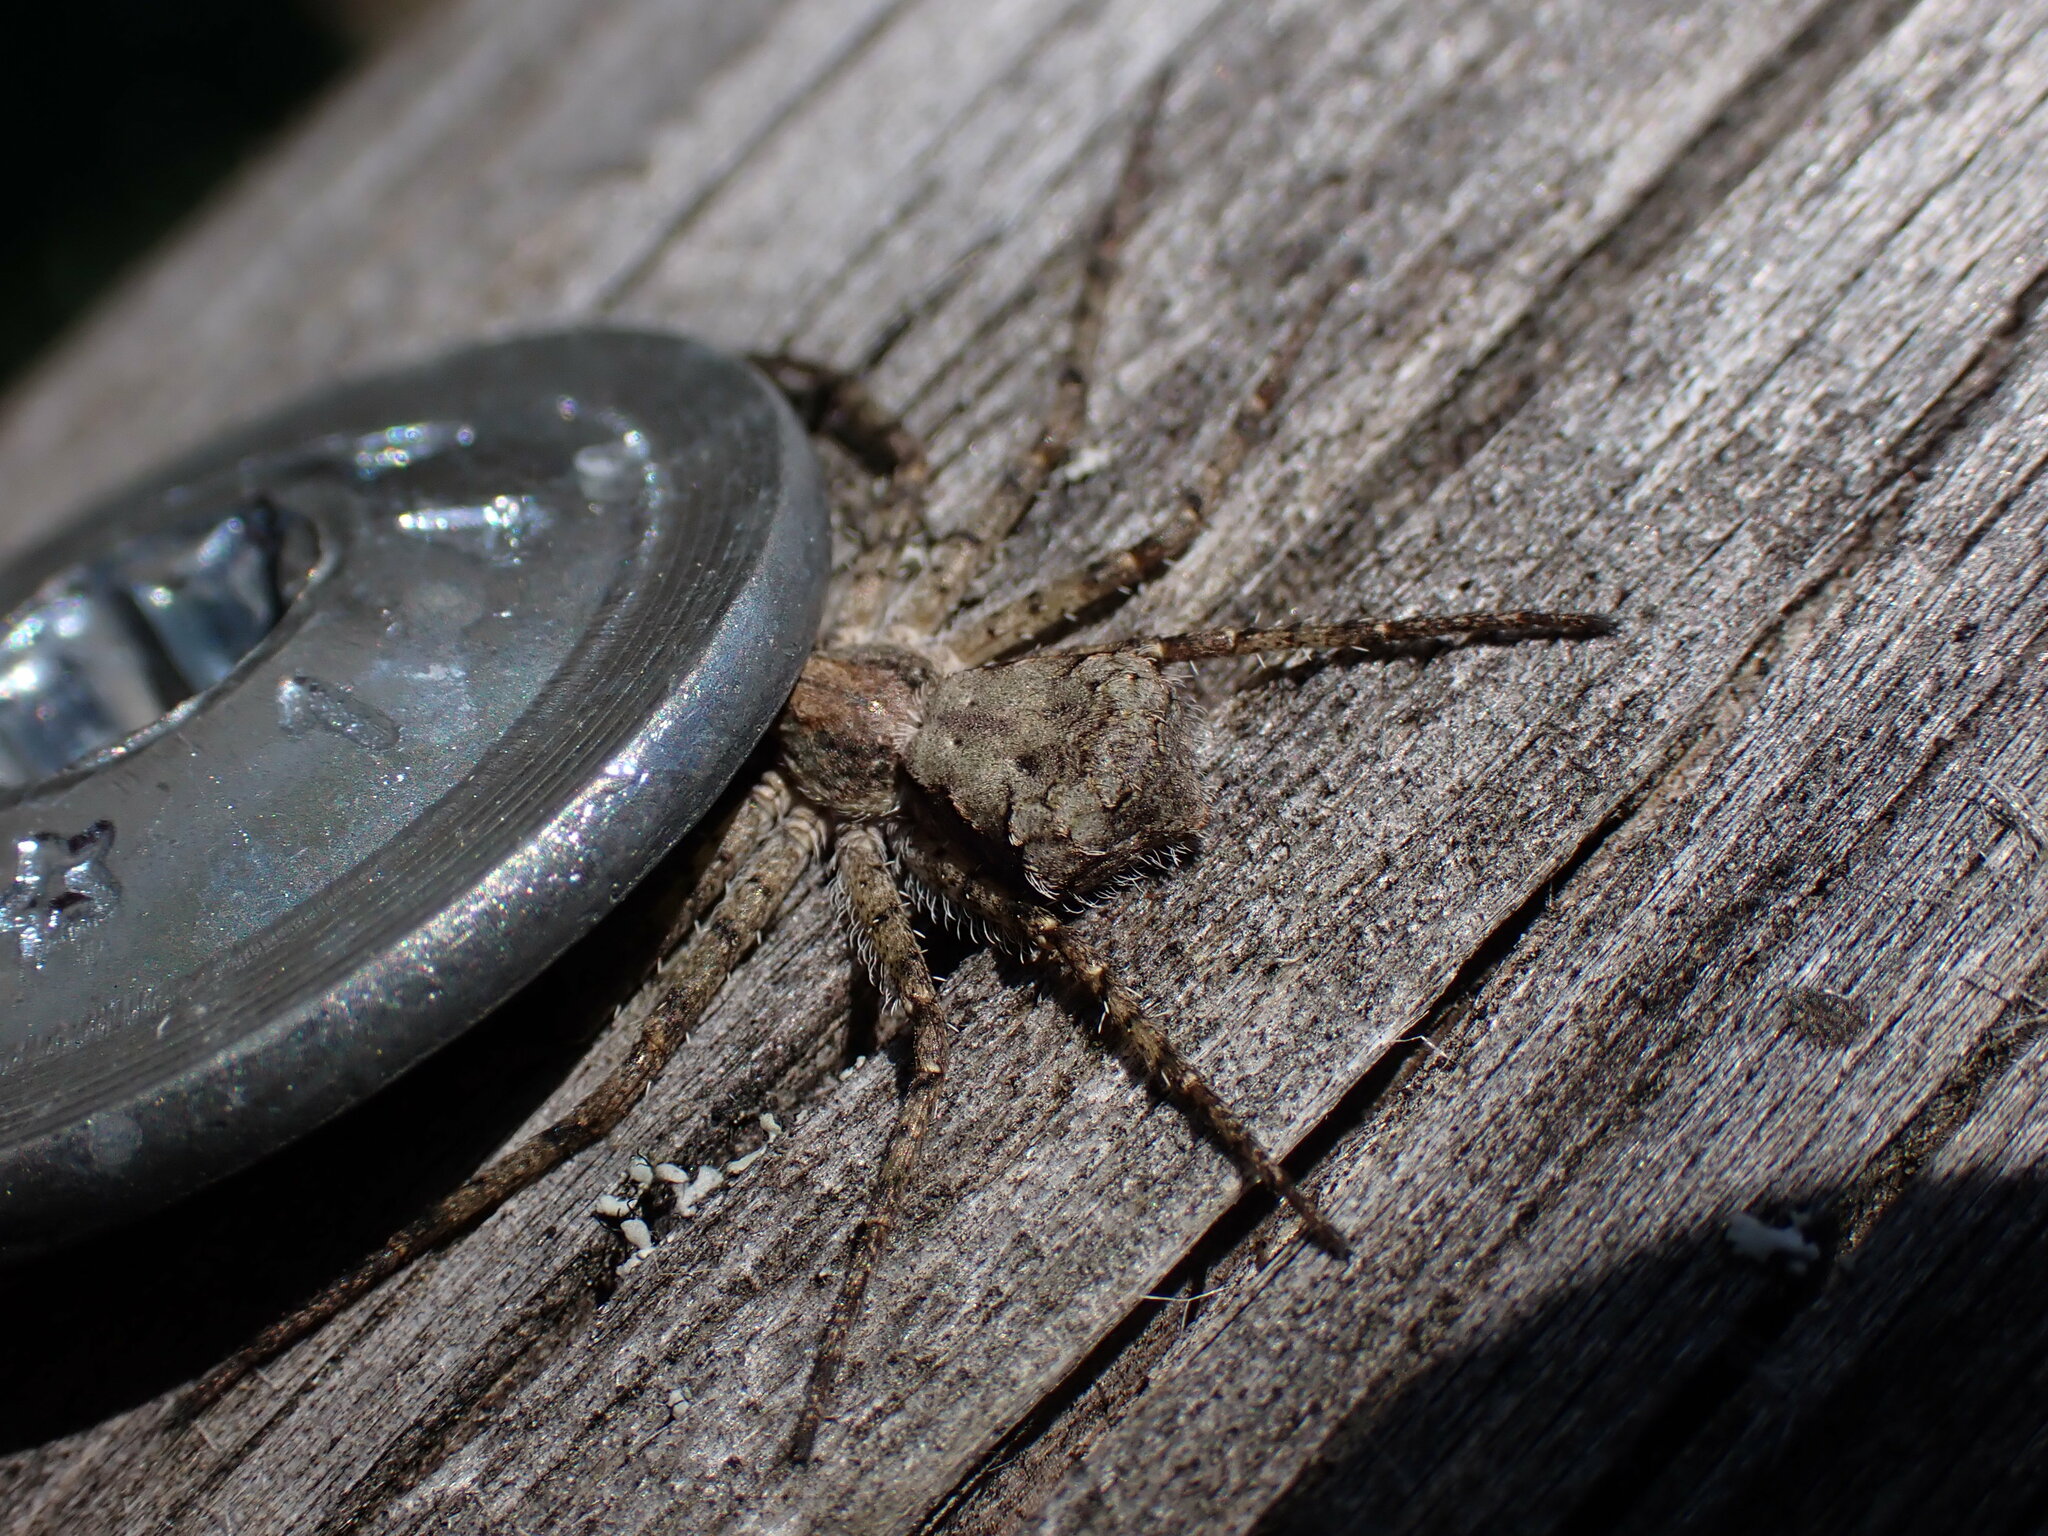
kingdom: Animalia
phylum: Arthropoda
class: Arachnida
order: Araneae
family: Philodromidae
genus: Philodromus
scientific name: Philodromus margaritatus
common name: Lichen running-spider
